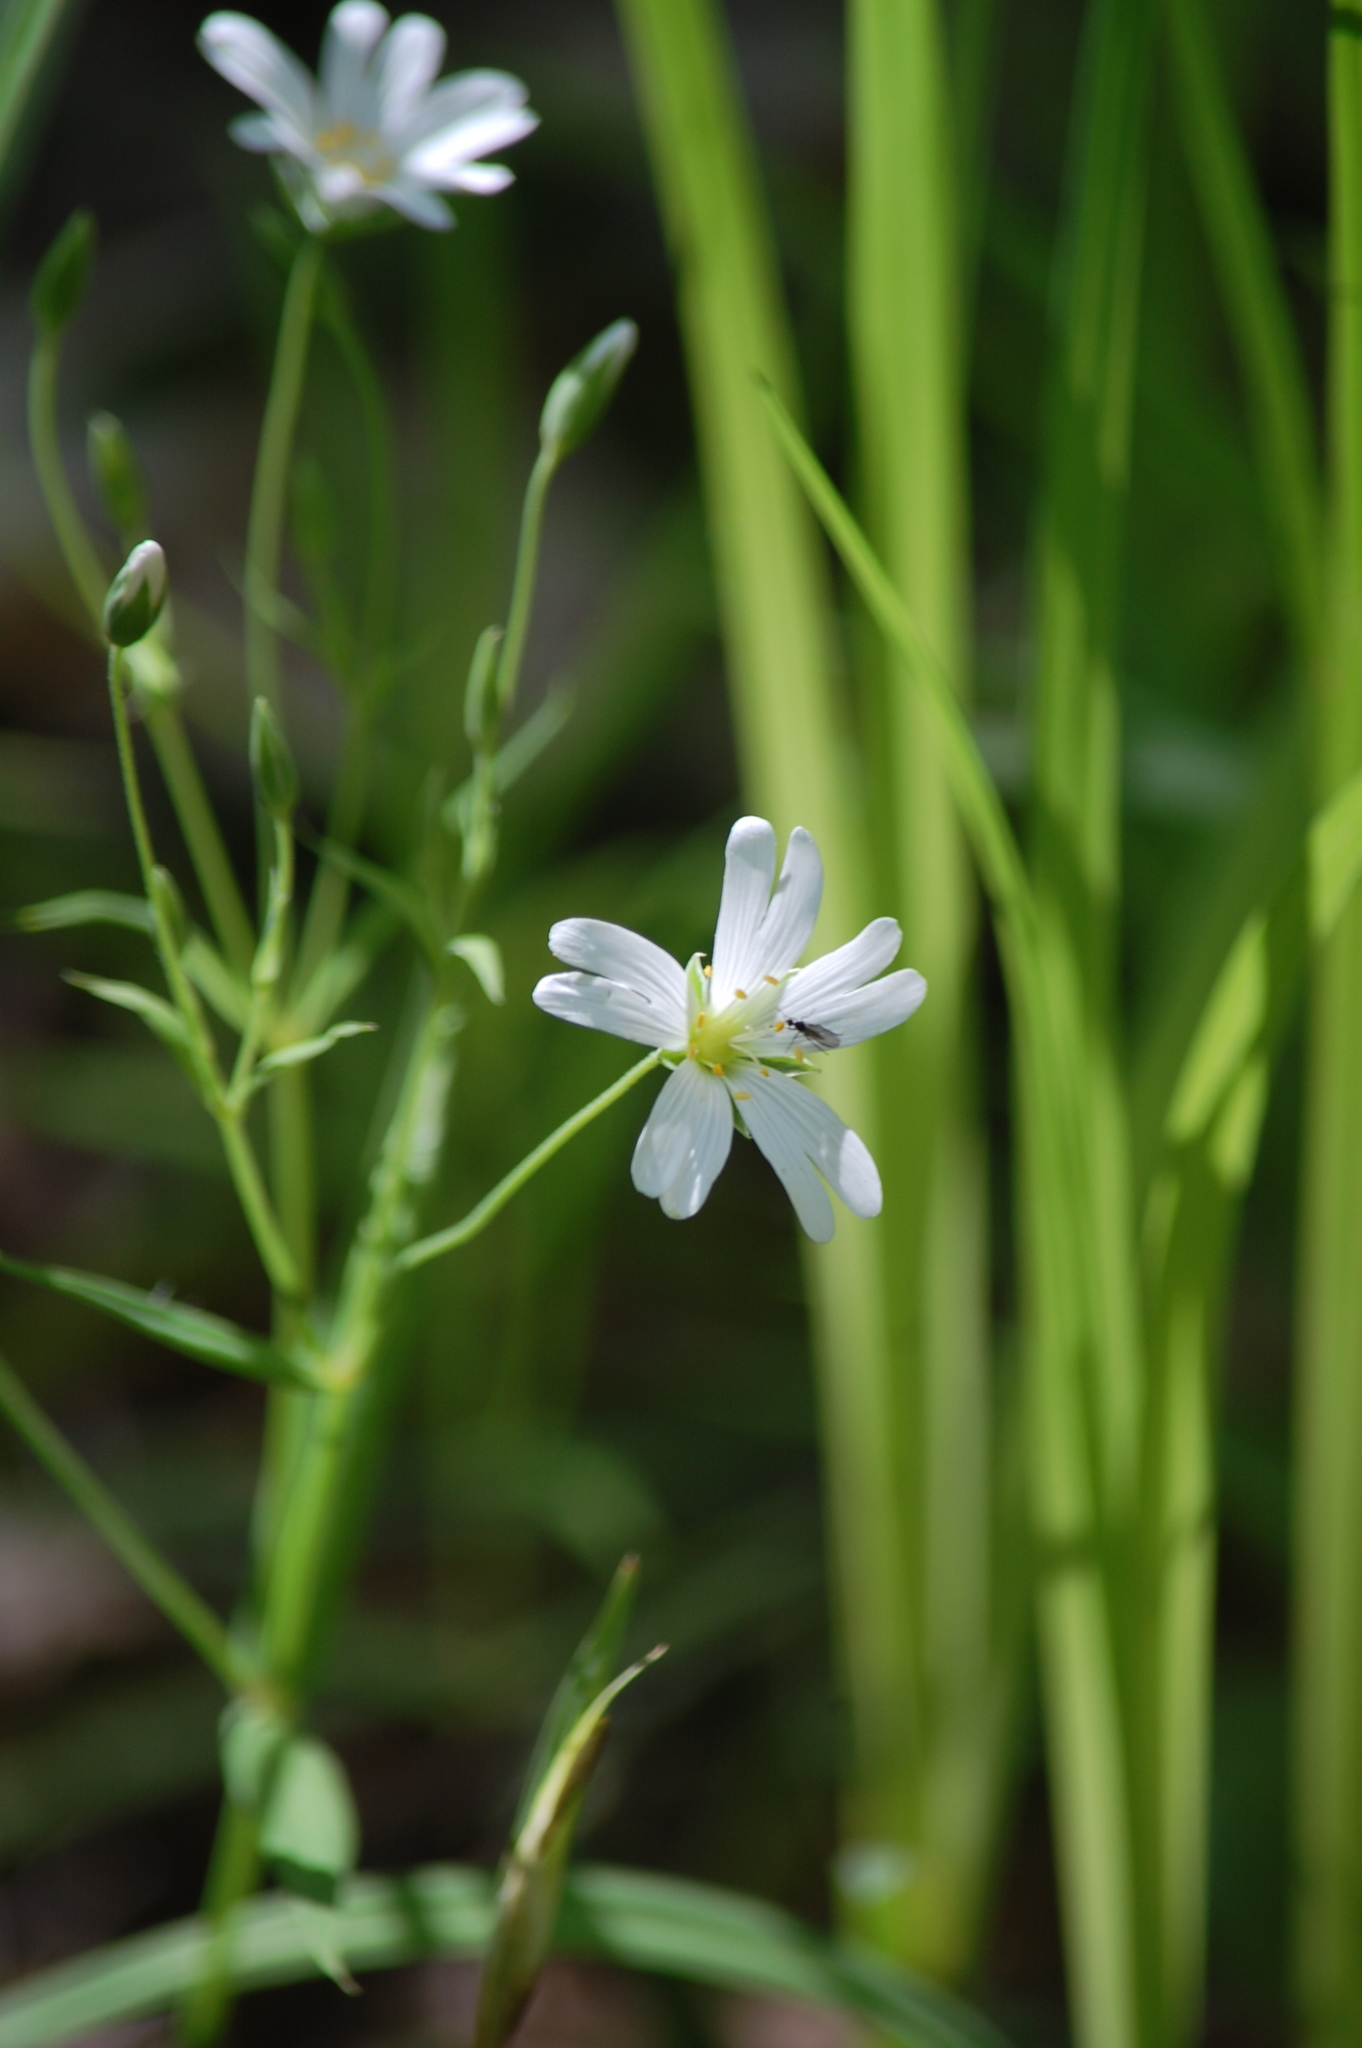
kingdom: Plantae
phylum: Tracheophyta
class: Magnoliopsida
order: Caryophyllales
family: Caryophyllaceae
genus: Rabelera
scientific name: Rabelera holostea
